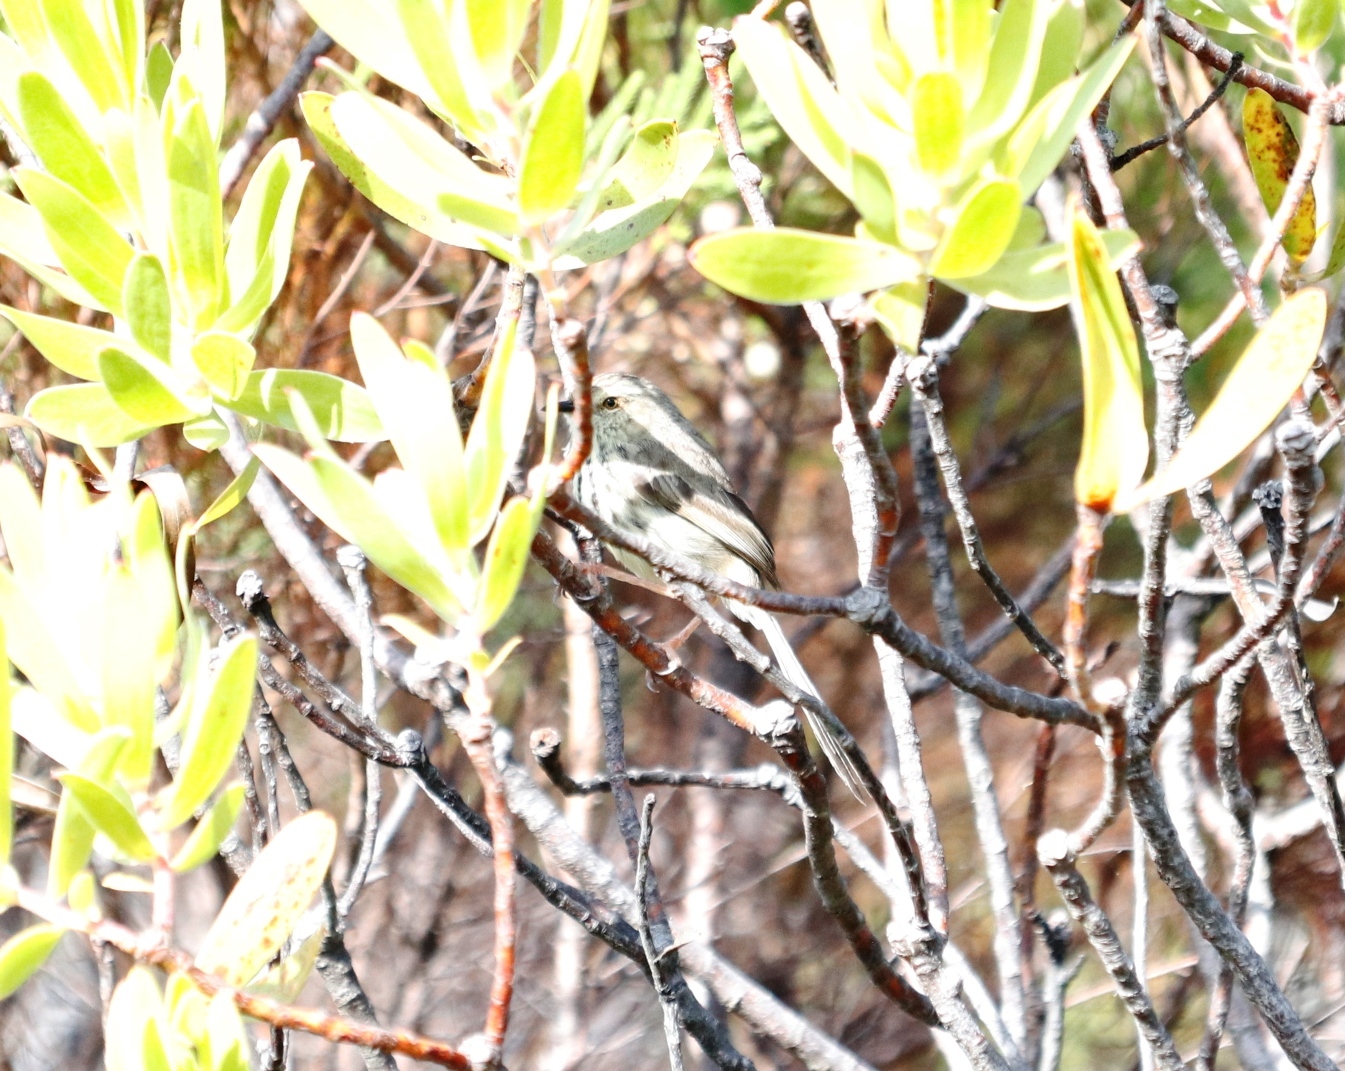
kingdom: Animalia
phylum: Chordata
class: Aves
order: Passeriformes
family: Cisticolidae
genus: Prinia
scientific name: Prinia maculosa
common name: Karoo prinia
